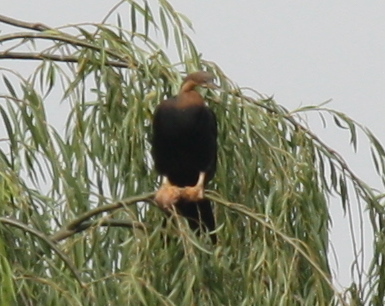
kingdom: Animalia
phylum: Chordata
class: Aves
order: Suliformes
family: Anhingidae
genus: Anhinga
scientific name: Anhinga rufa
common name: African darter
